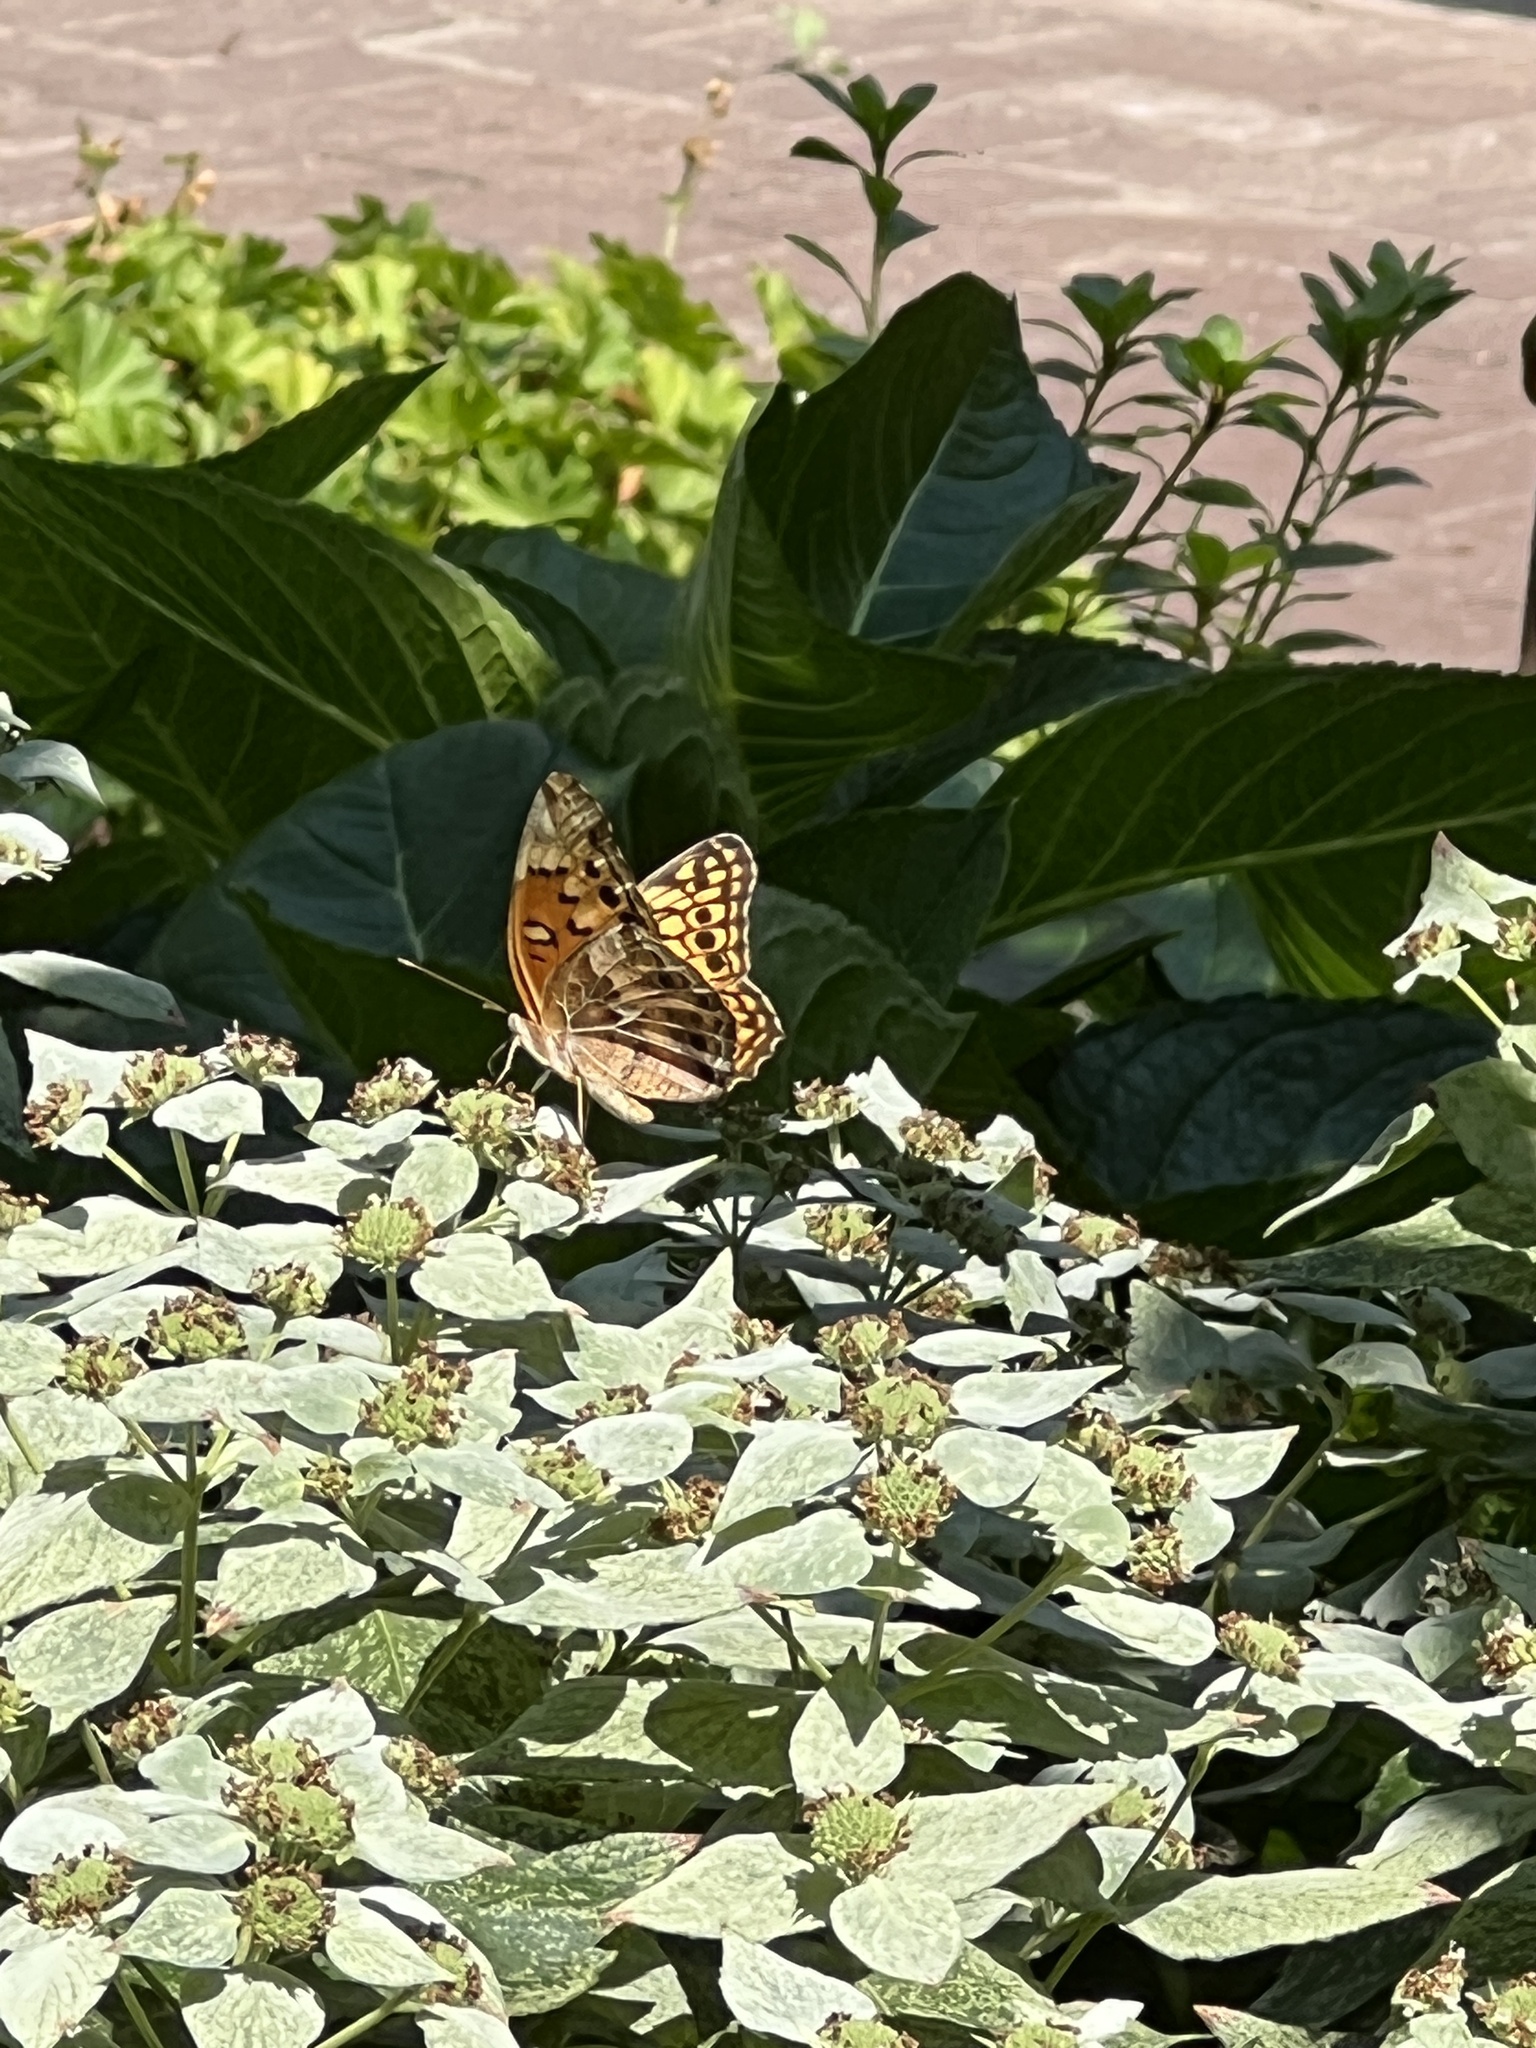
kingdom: Animalia
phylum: Arthropoda
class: Insecta
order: Lepidoptera
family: Nymphalidae
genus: Euptoieta
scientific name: Euptoieta claudia
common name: Variegated fritillary
